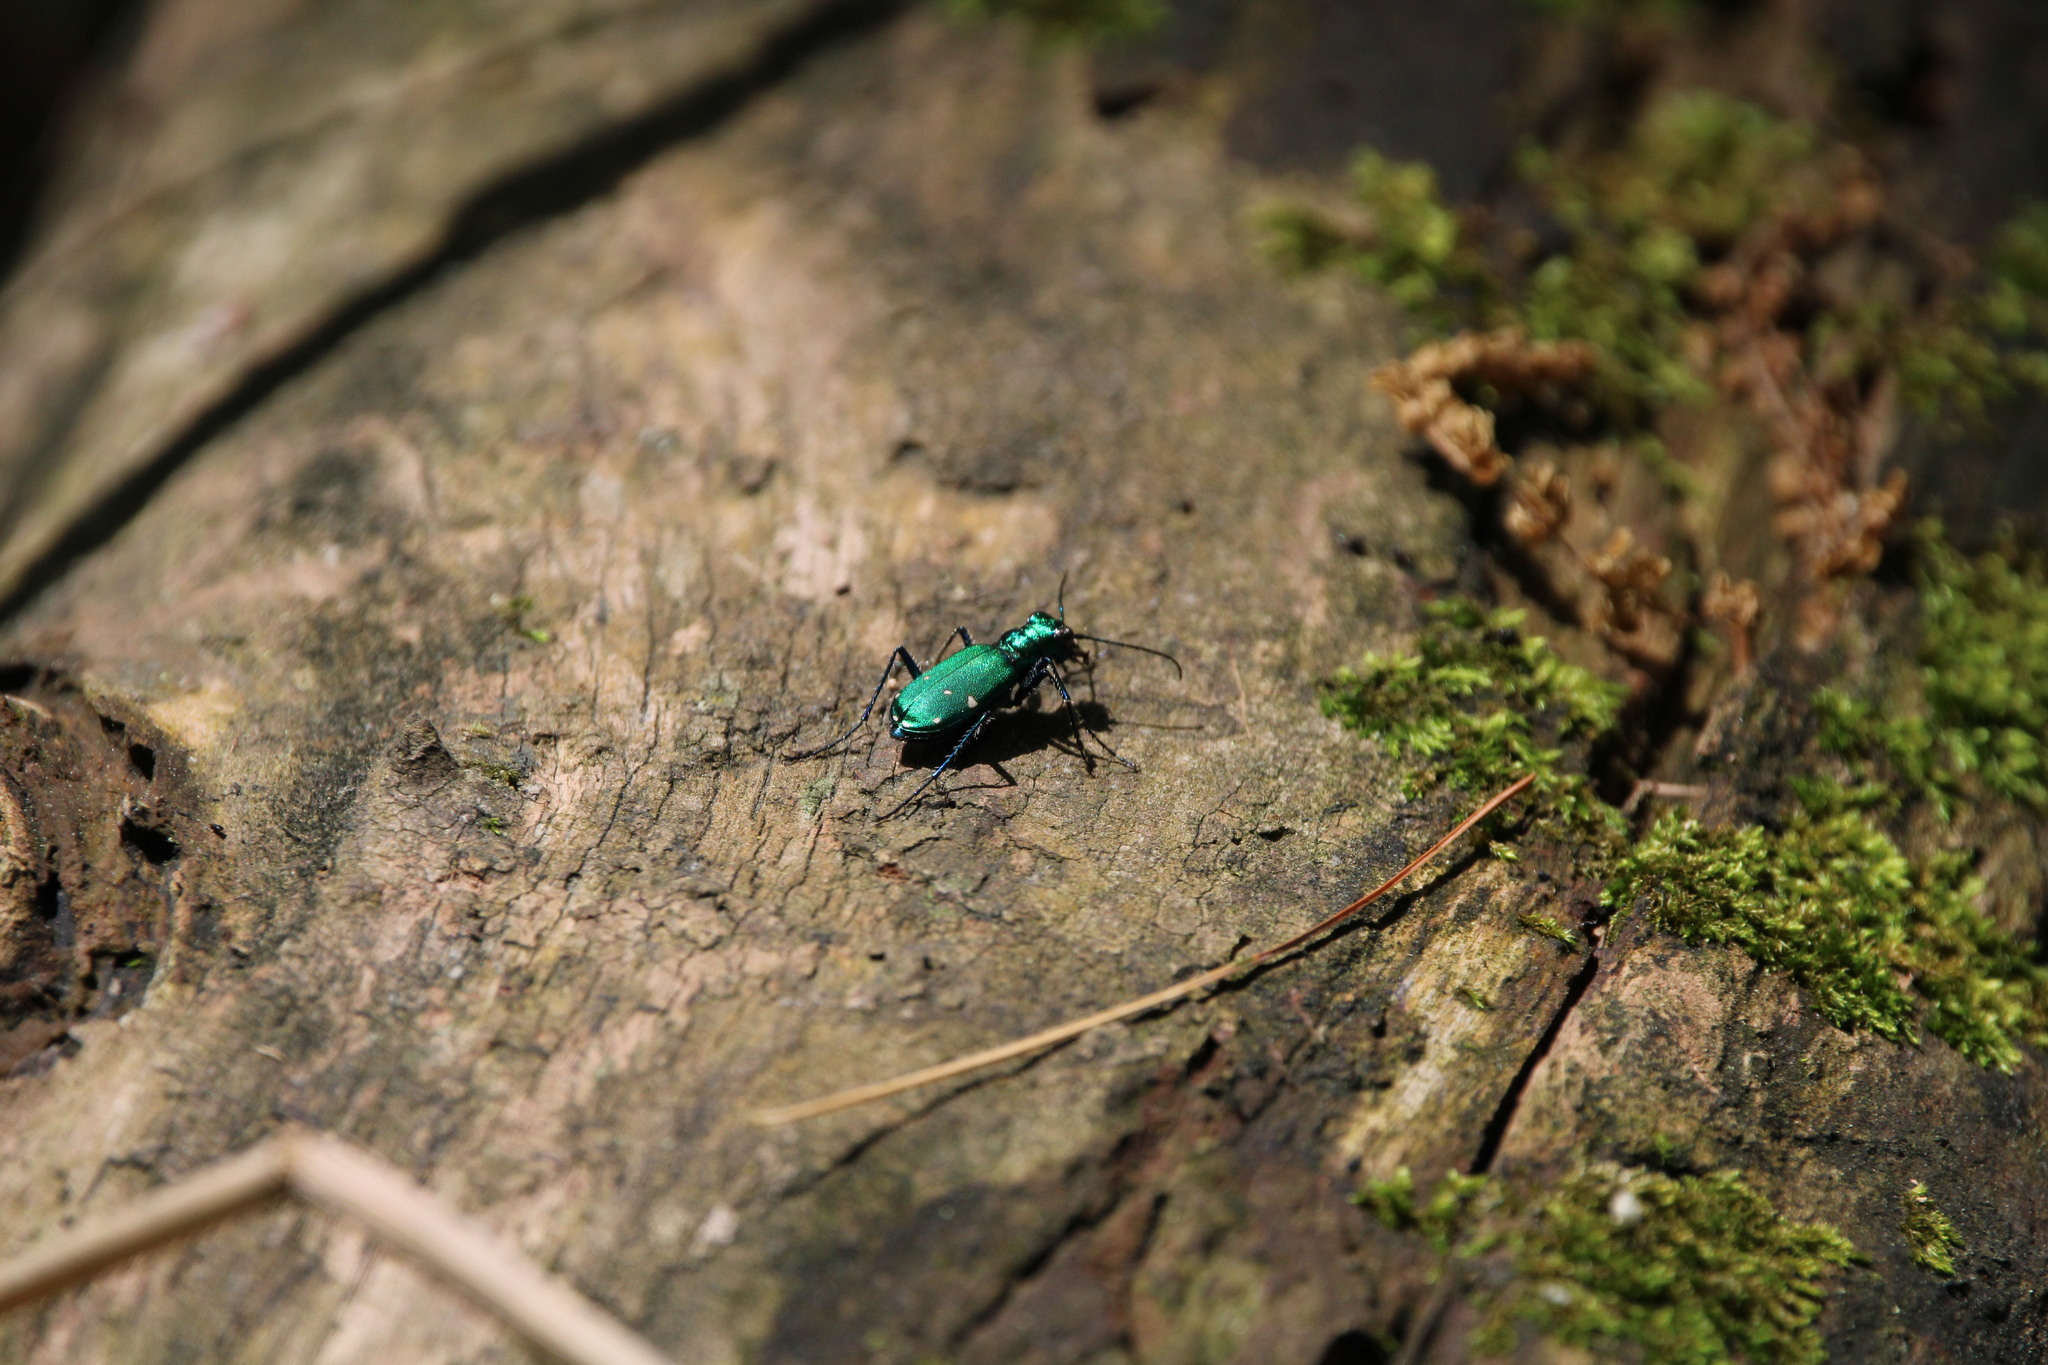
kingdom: Animalia
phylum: Arthropoda
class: Insecta
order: Coleoptera
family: Carabidae
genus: Cicindela
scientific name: Cicindela sexguttata
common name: Six-spotted tiger beetle
